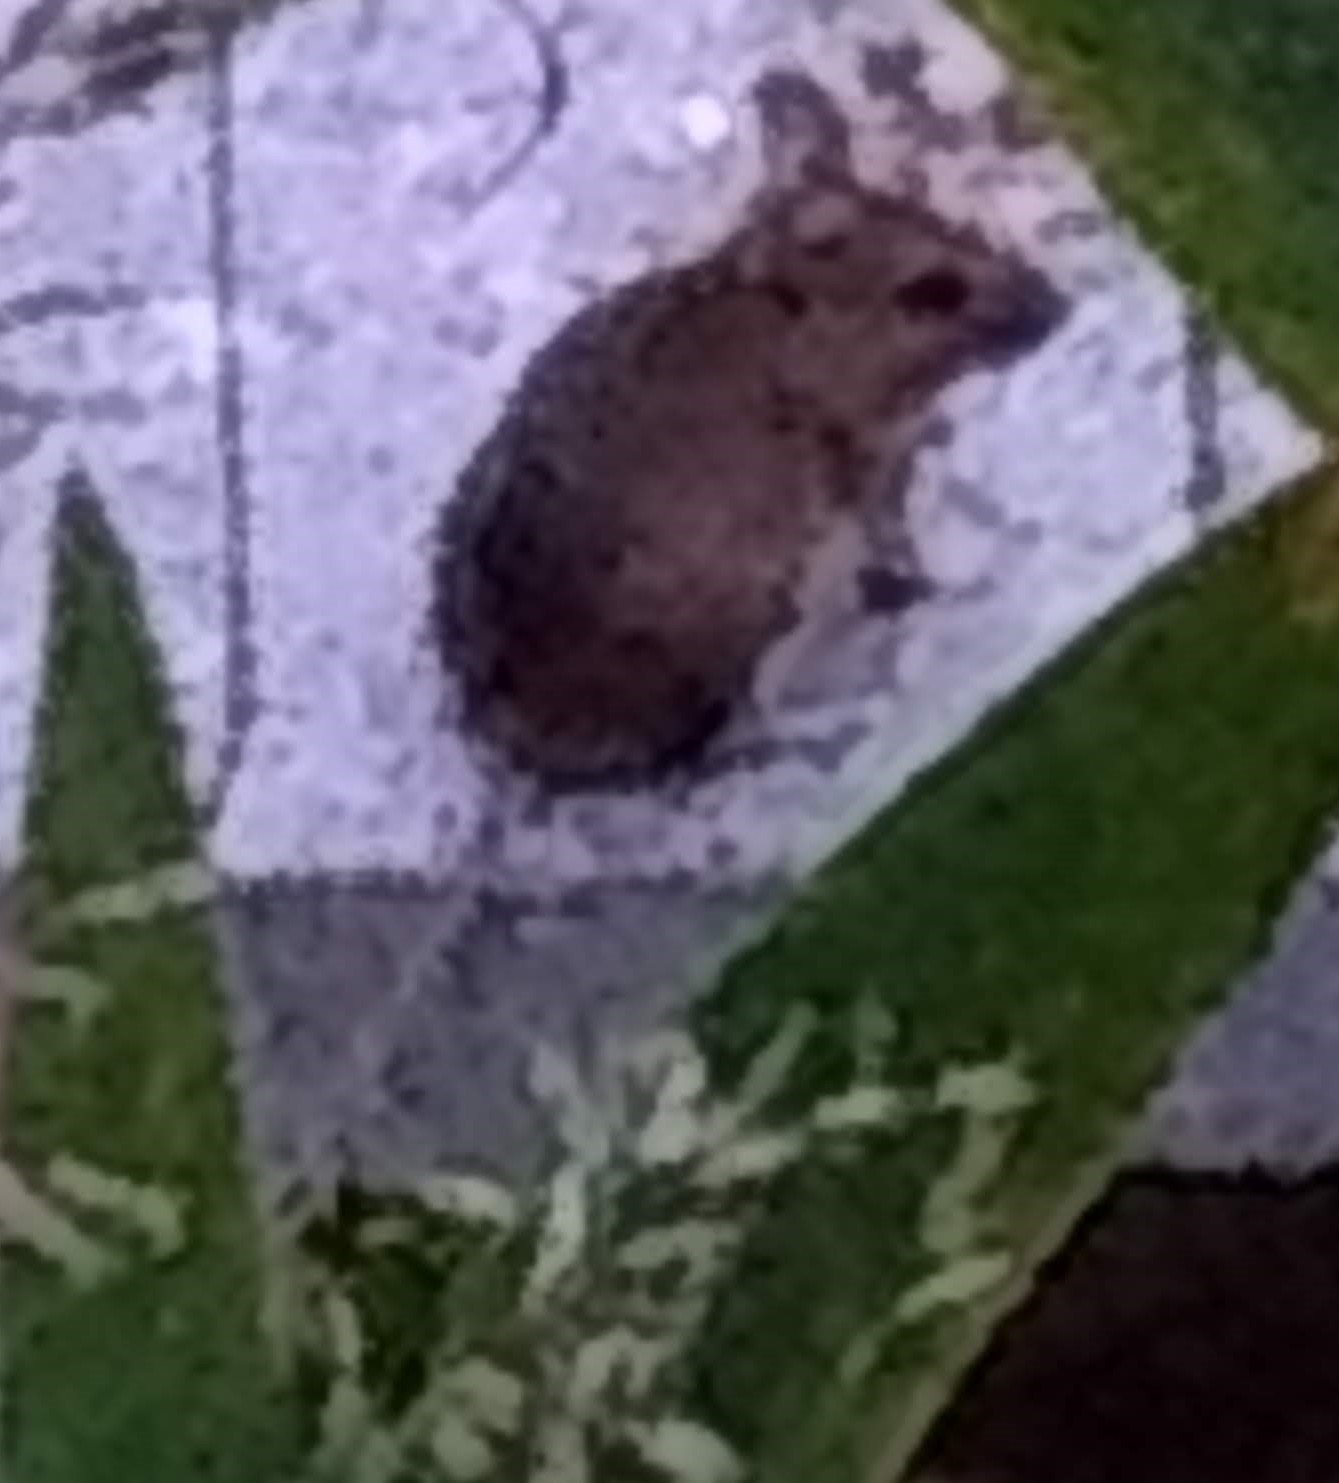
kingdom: Animalia
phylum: Chordata
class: Mammalia
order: Rodentia
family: Muridae
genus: Apodemus
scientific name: Apodemus sylvaticus
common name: Wood mouse
